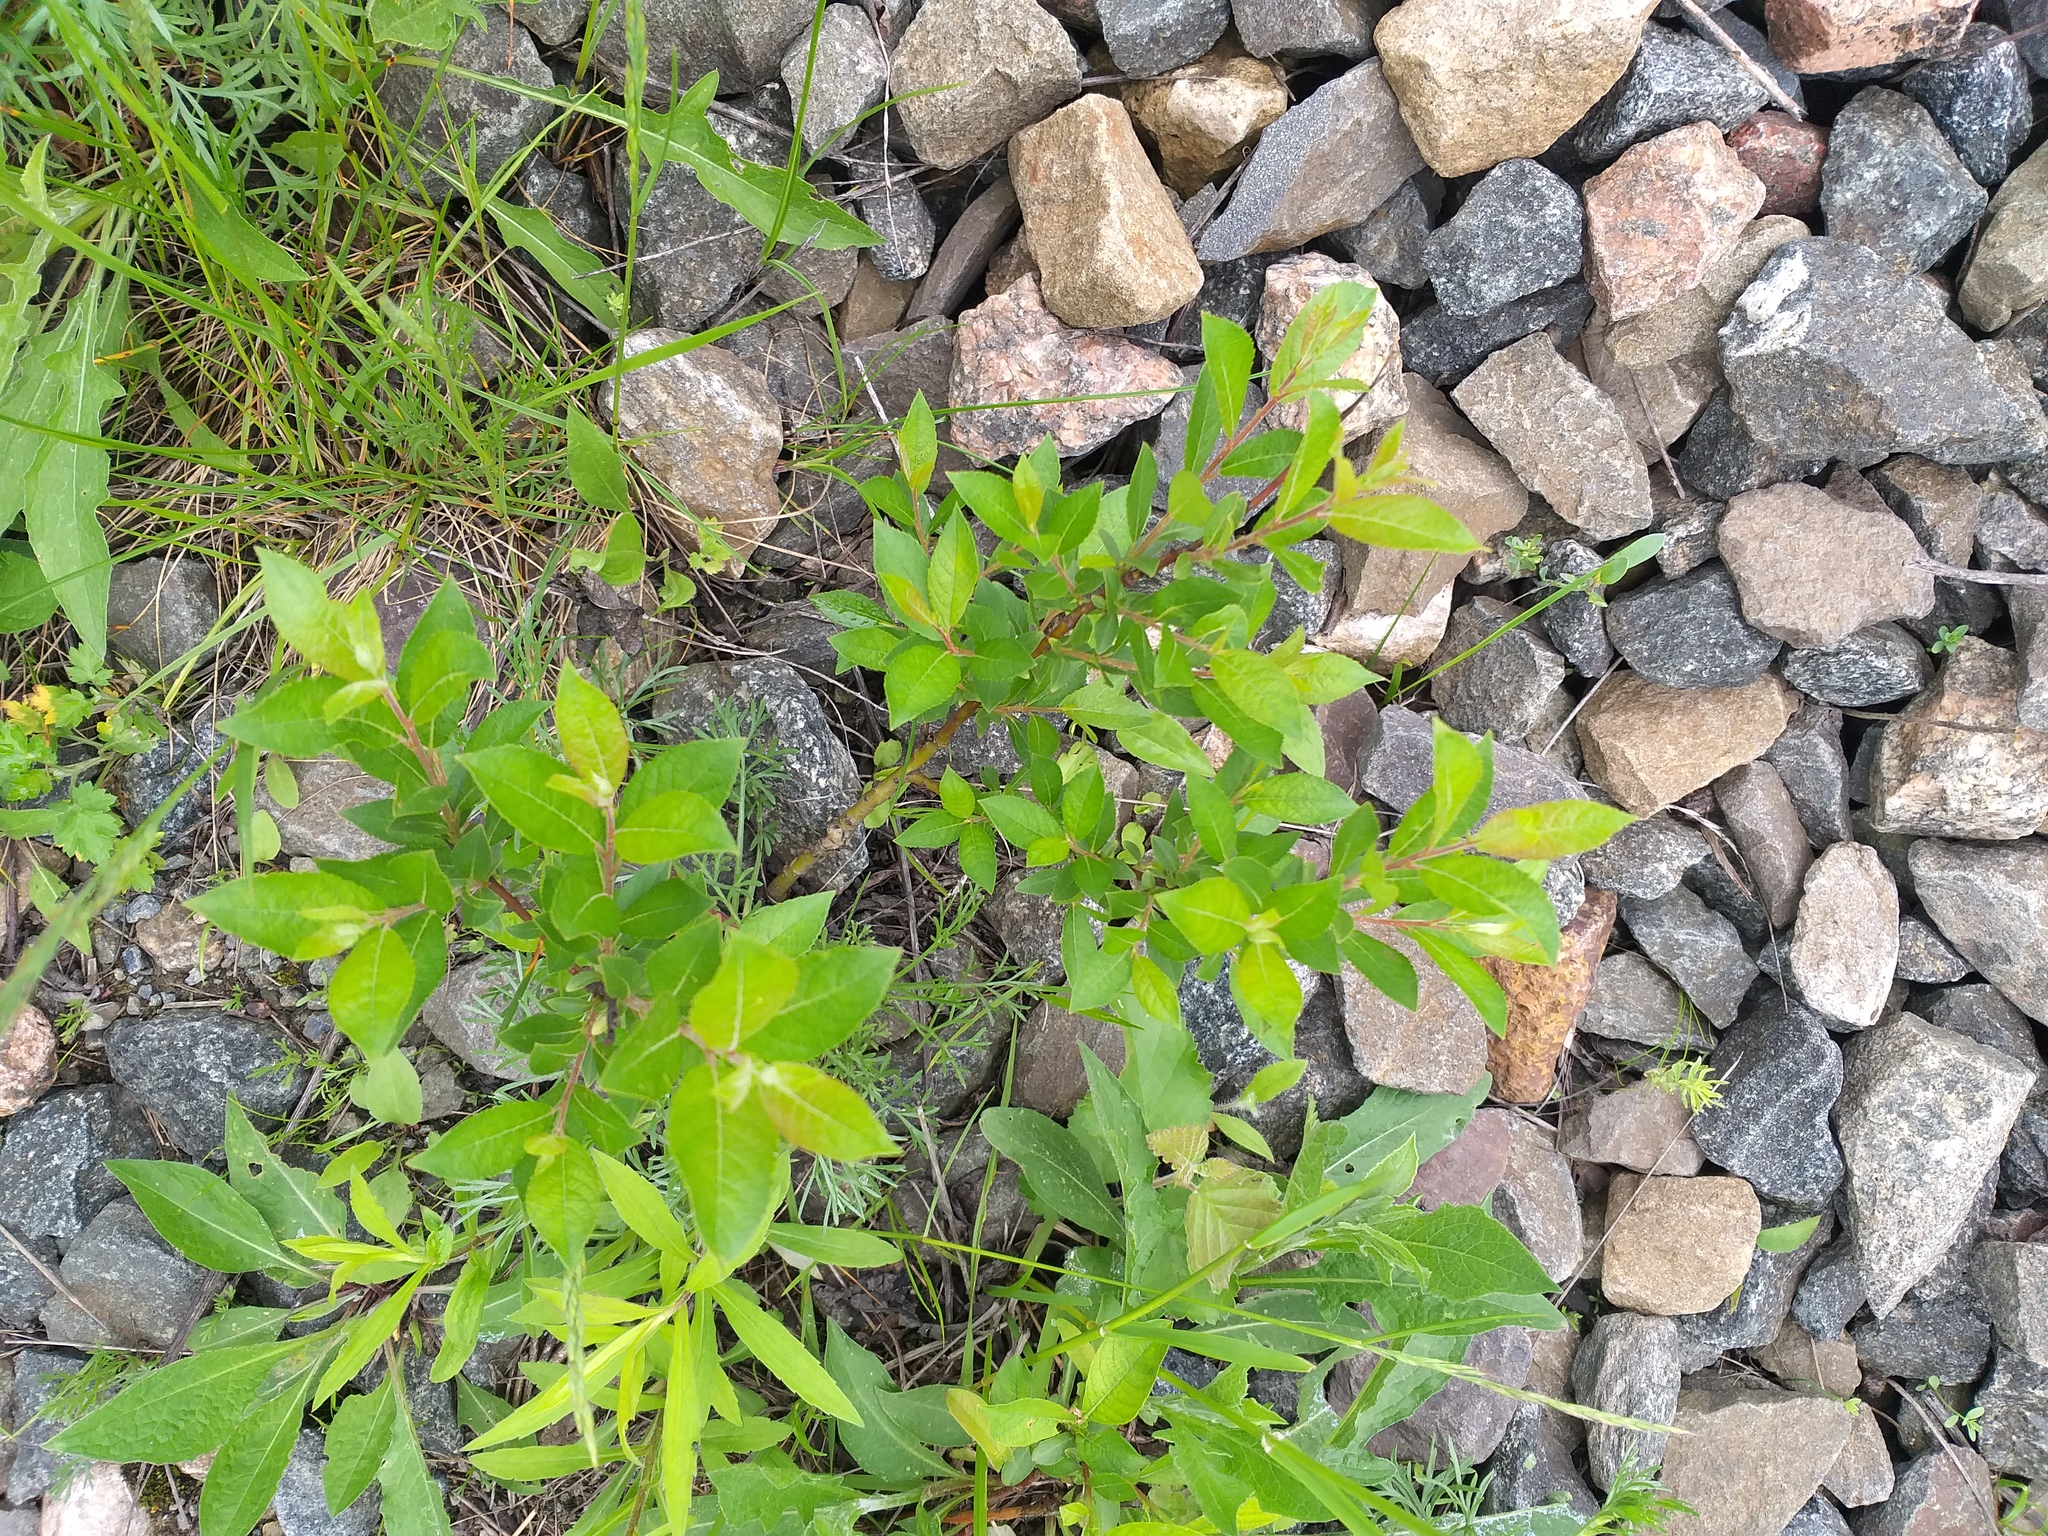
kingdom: Plantae
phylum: Tracheophyta
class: Magnoliopsida
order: Malpighiales
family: Salicaceae
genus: Salix
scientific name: Salix myrsinifolia
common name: Dark-leaved willow
